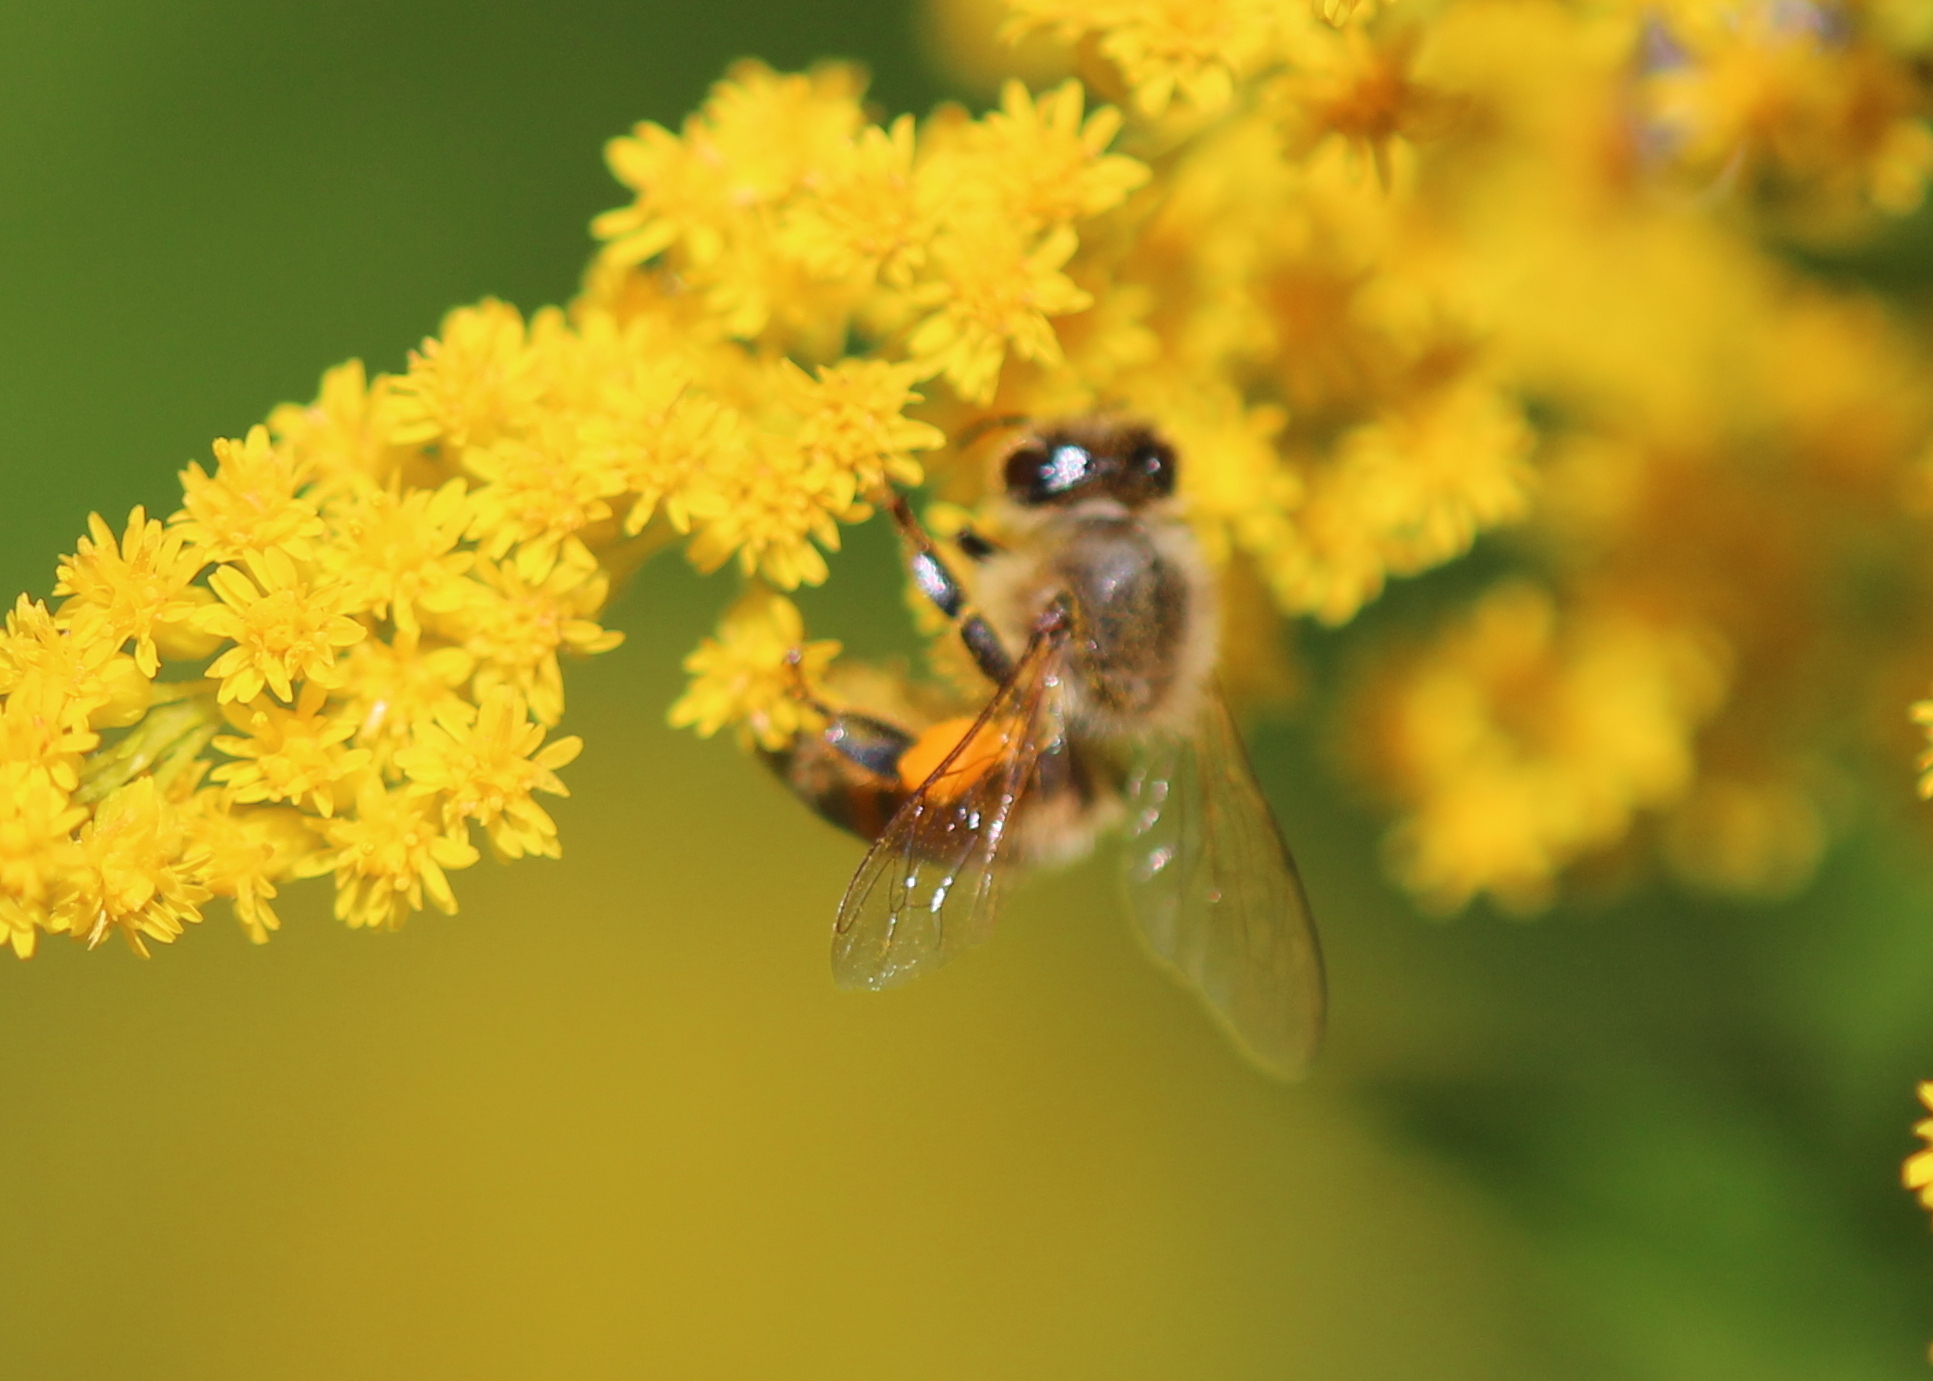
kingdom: Animalia
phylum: Arthropoda
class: Insecta
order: Hymenoptera
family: Apidae
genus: Apis
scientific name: Apis mellifera
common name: Honey bee
